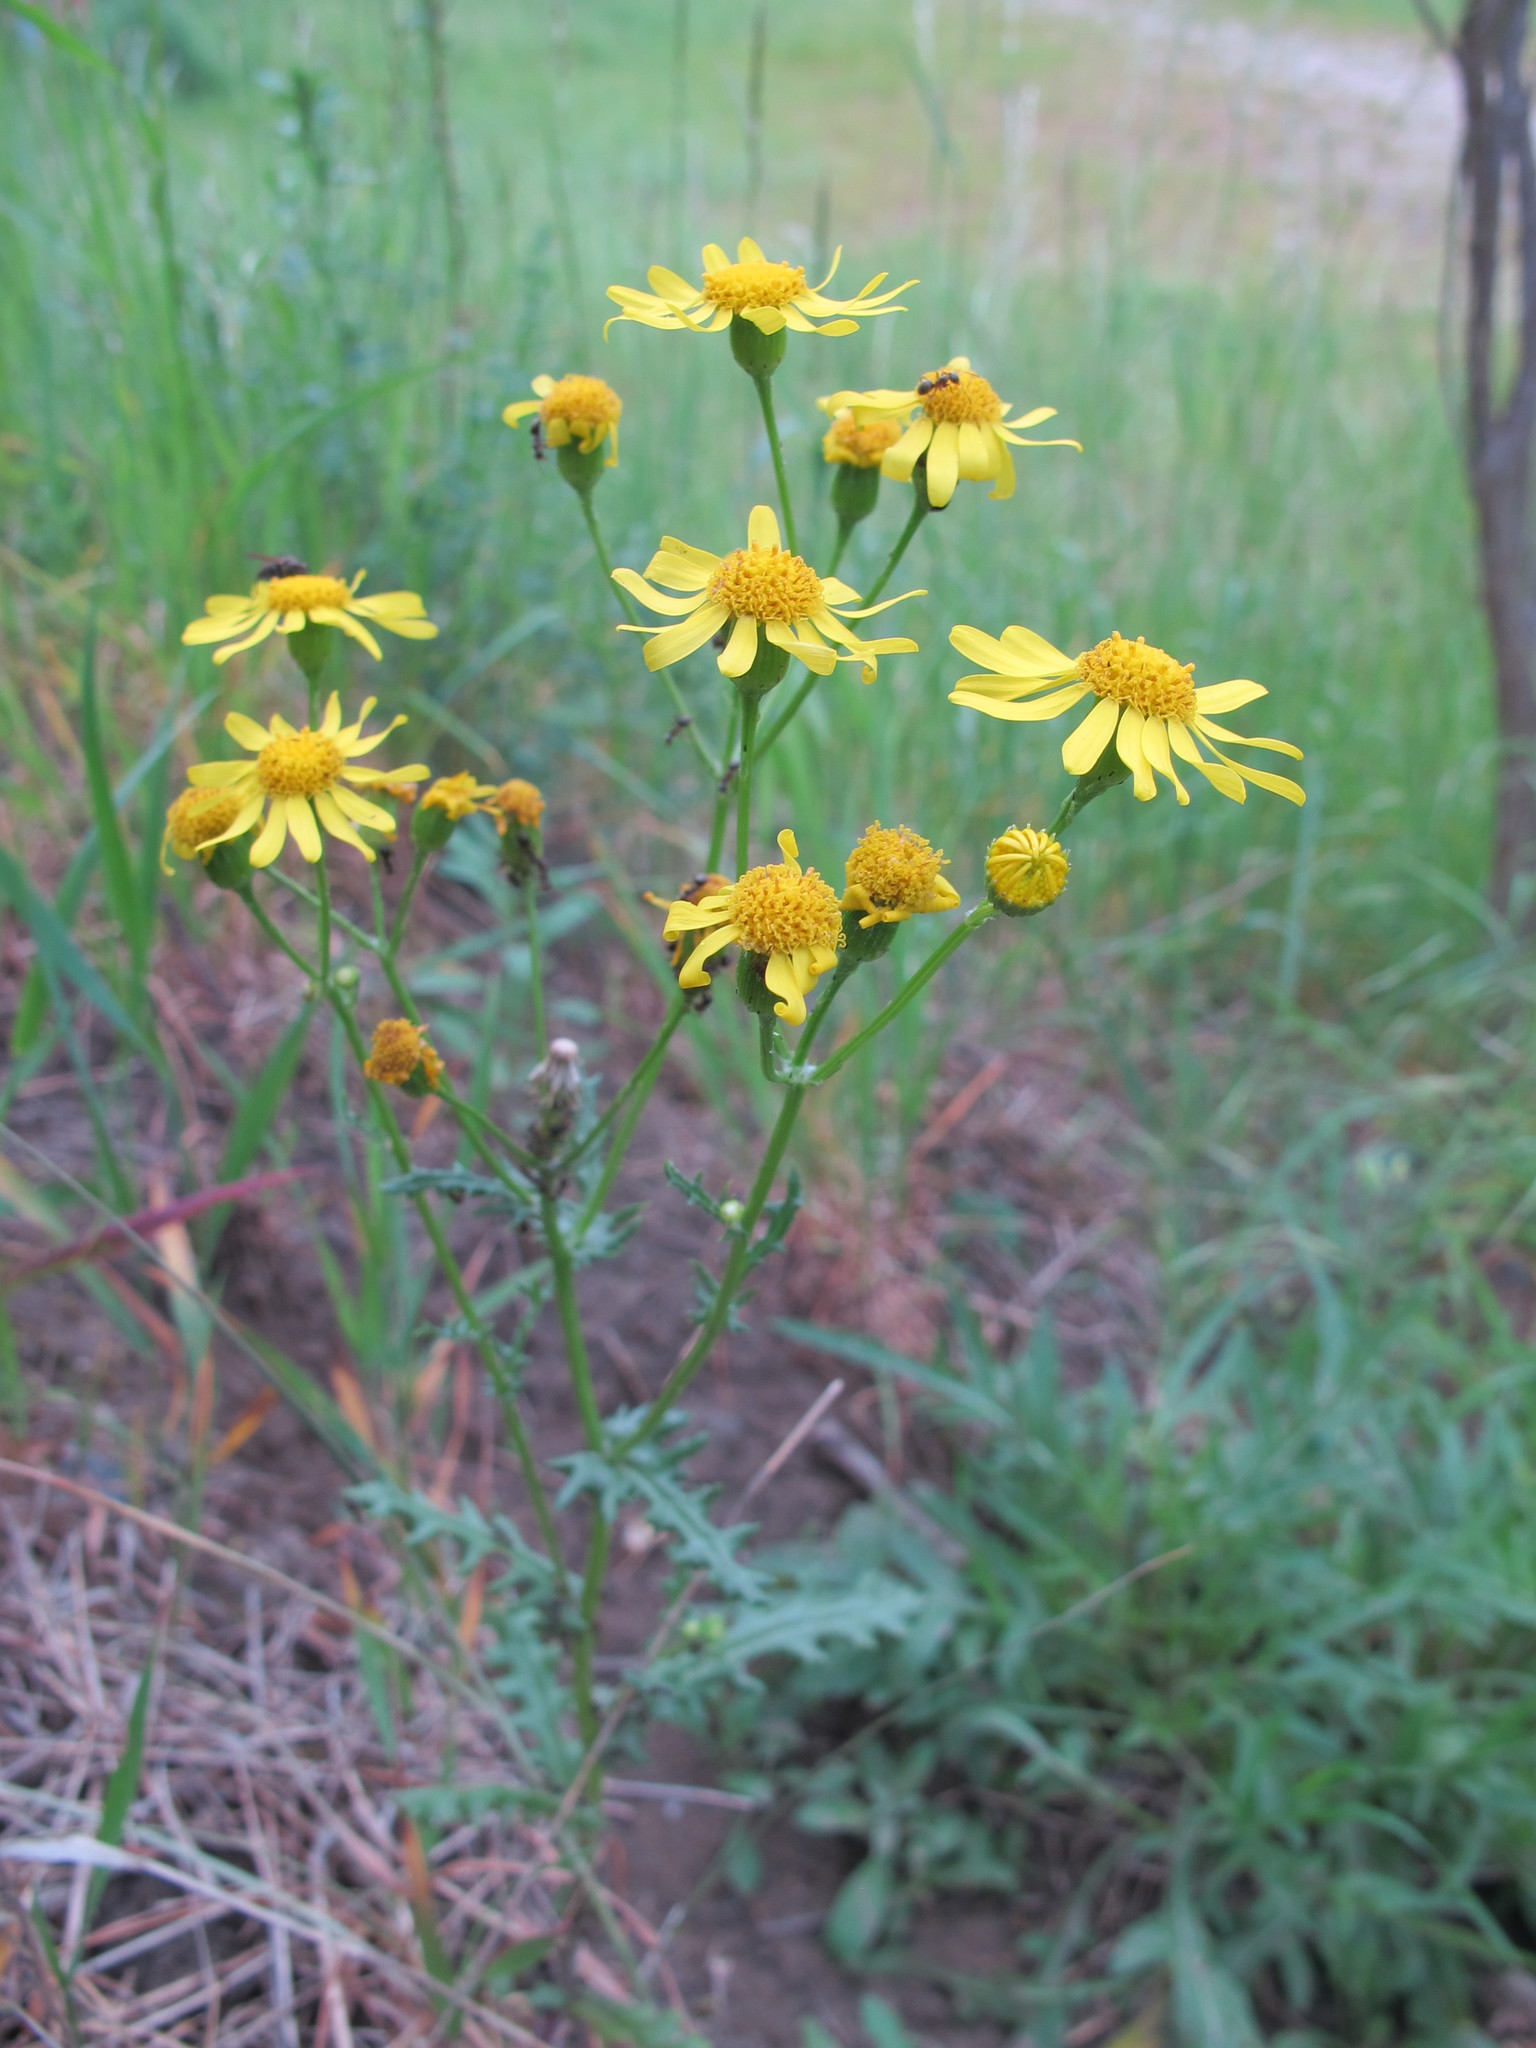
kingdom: Plantae
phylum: Tracheophyta
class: Magnoliopsida
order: Asterales
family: Asteraceae
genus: Senecio
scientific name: Senecio vernalis
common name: Eastern groundsel
